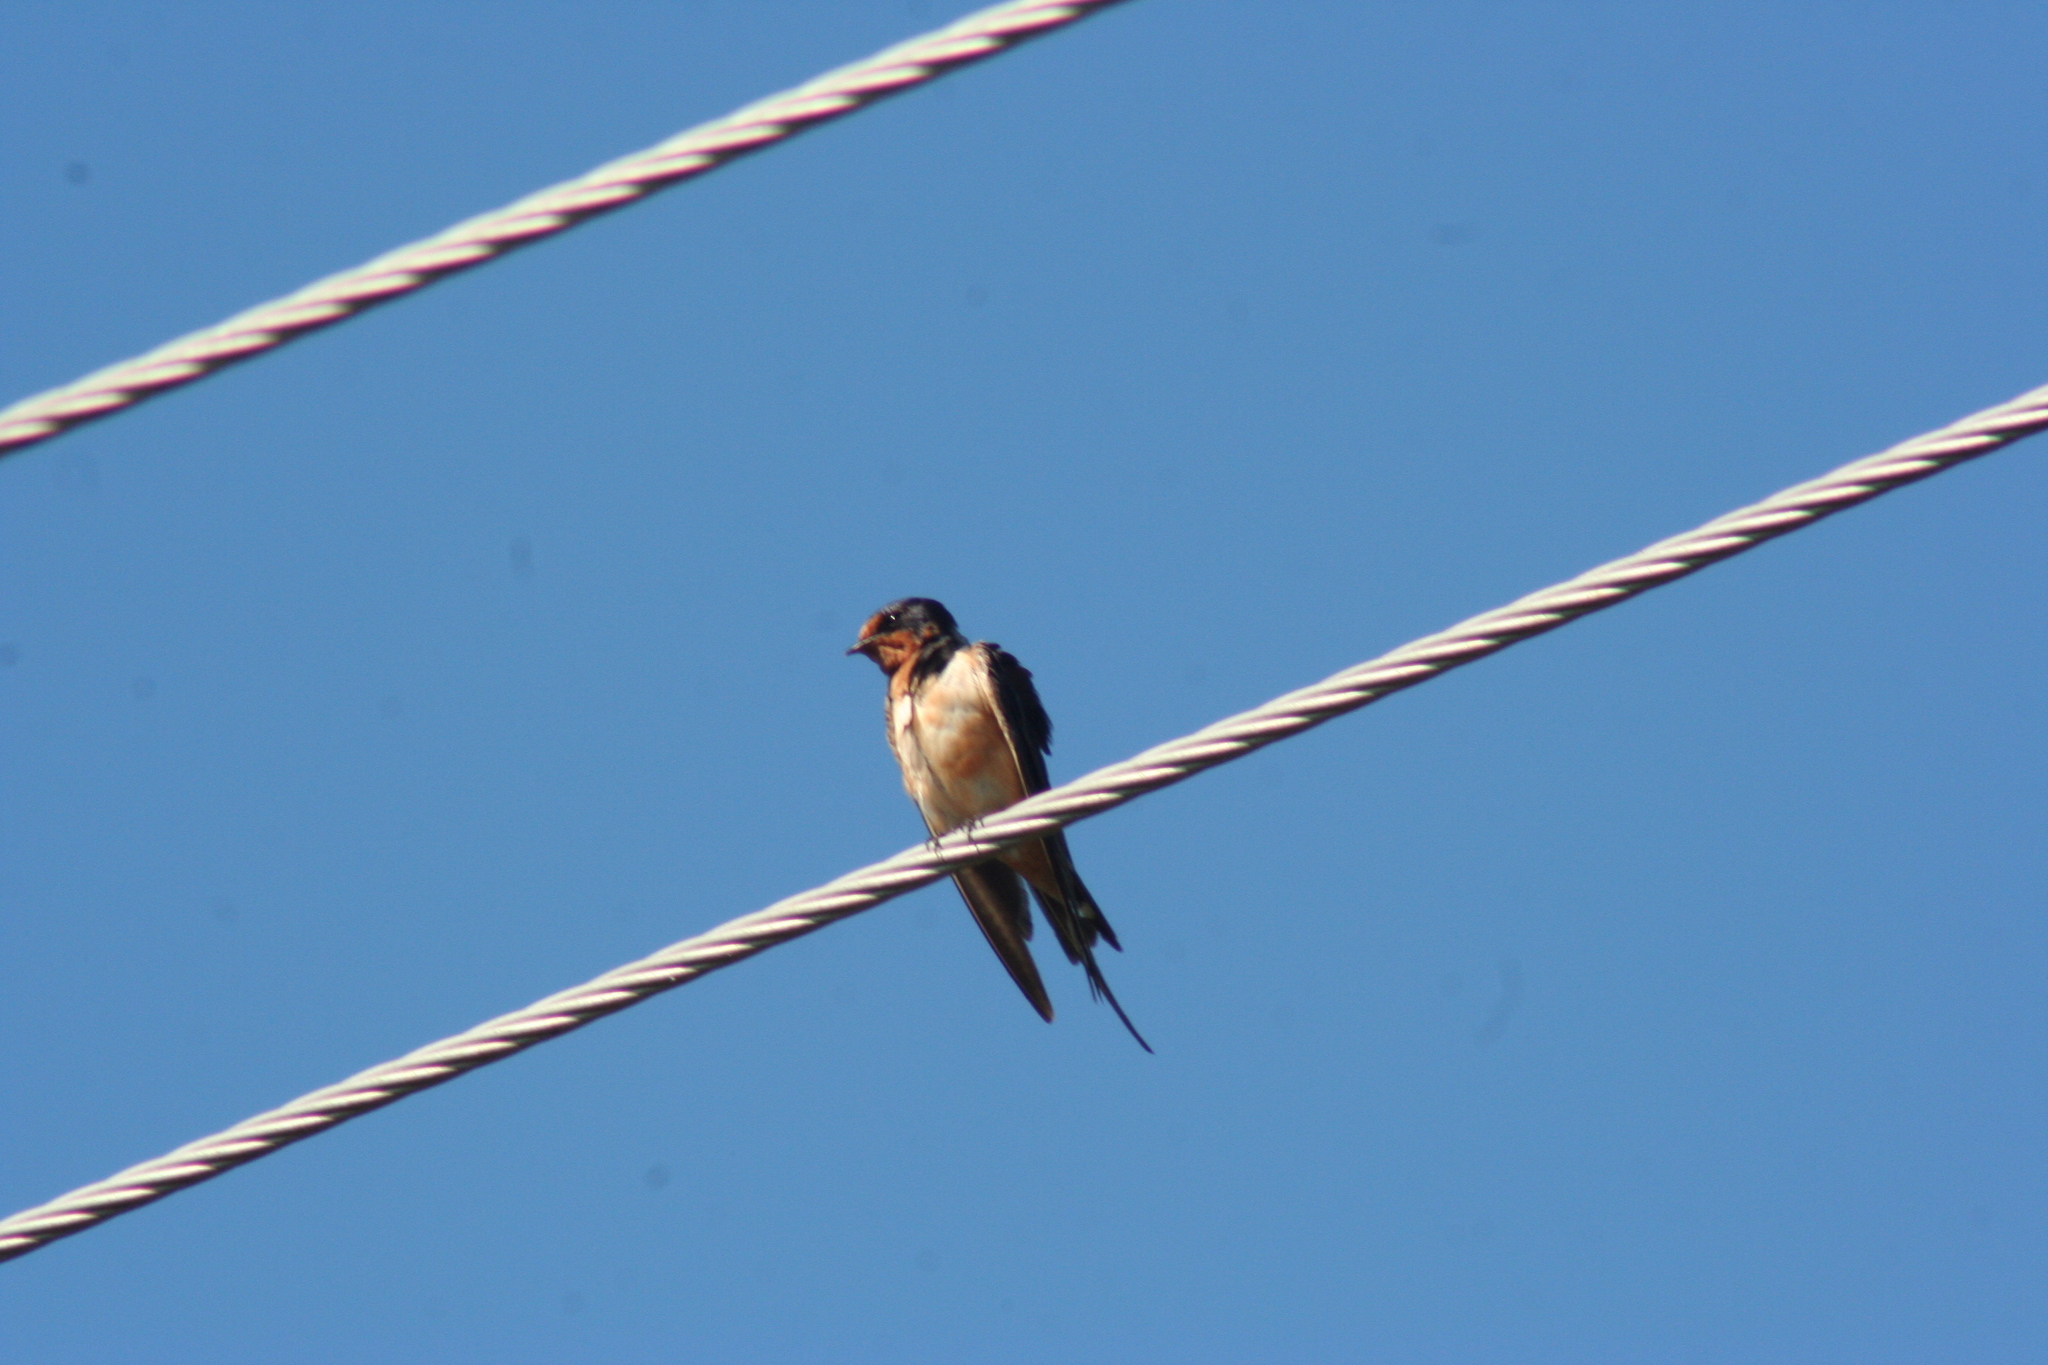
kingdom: Animalia
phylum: Chordata
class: Aves
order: Passeriformes
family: Hirundinidae
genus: Hirundo
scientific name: Hirundo rustica
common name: Barn swallow
